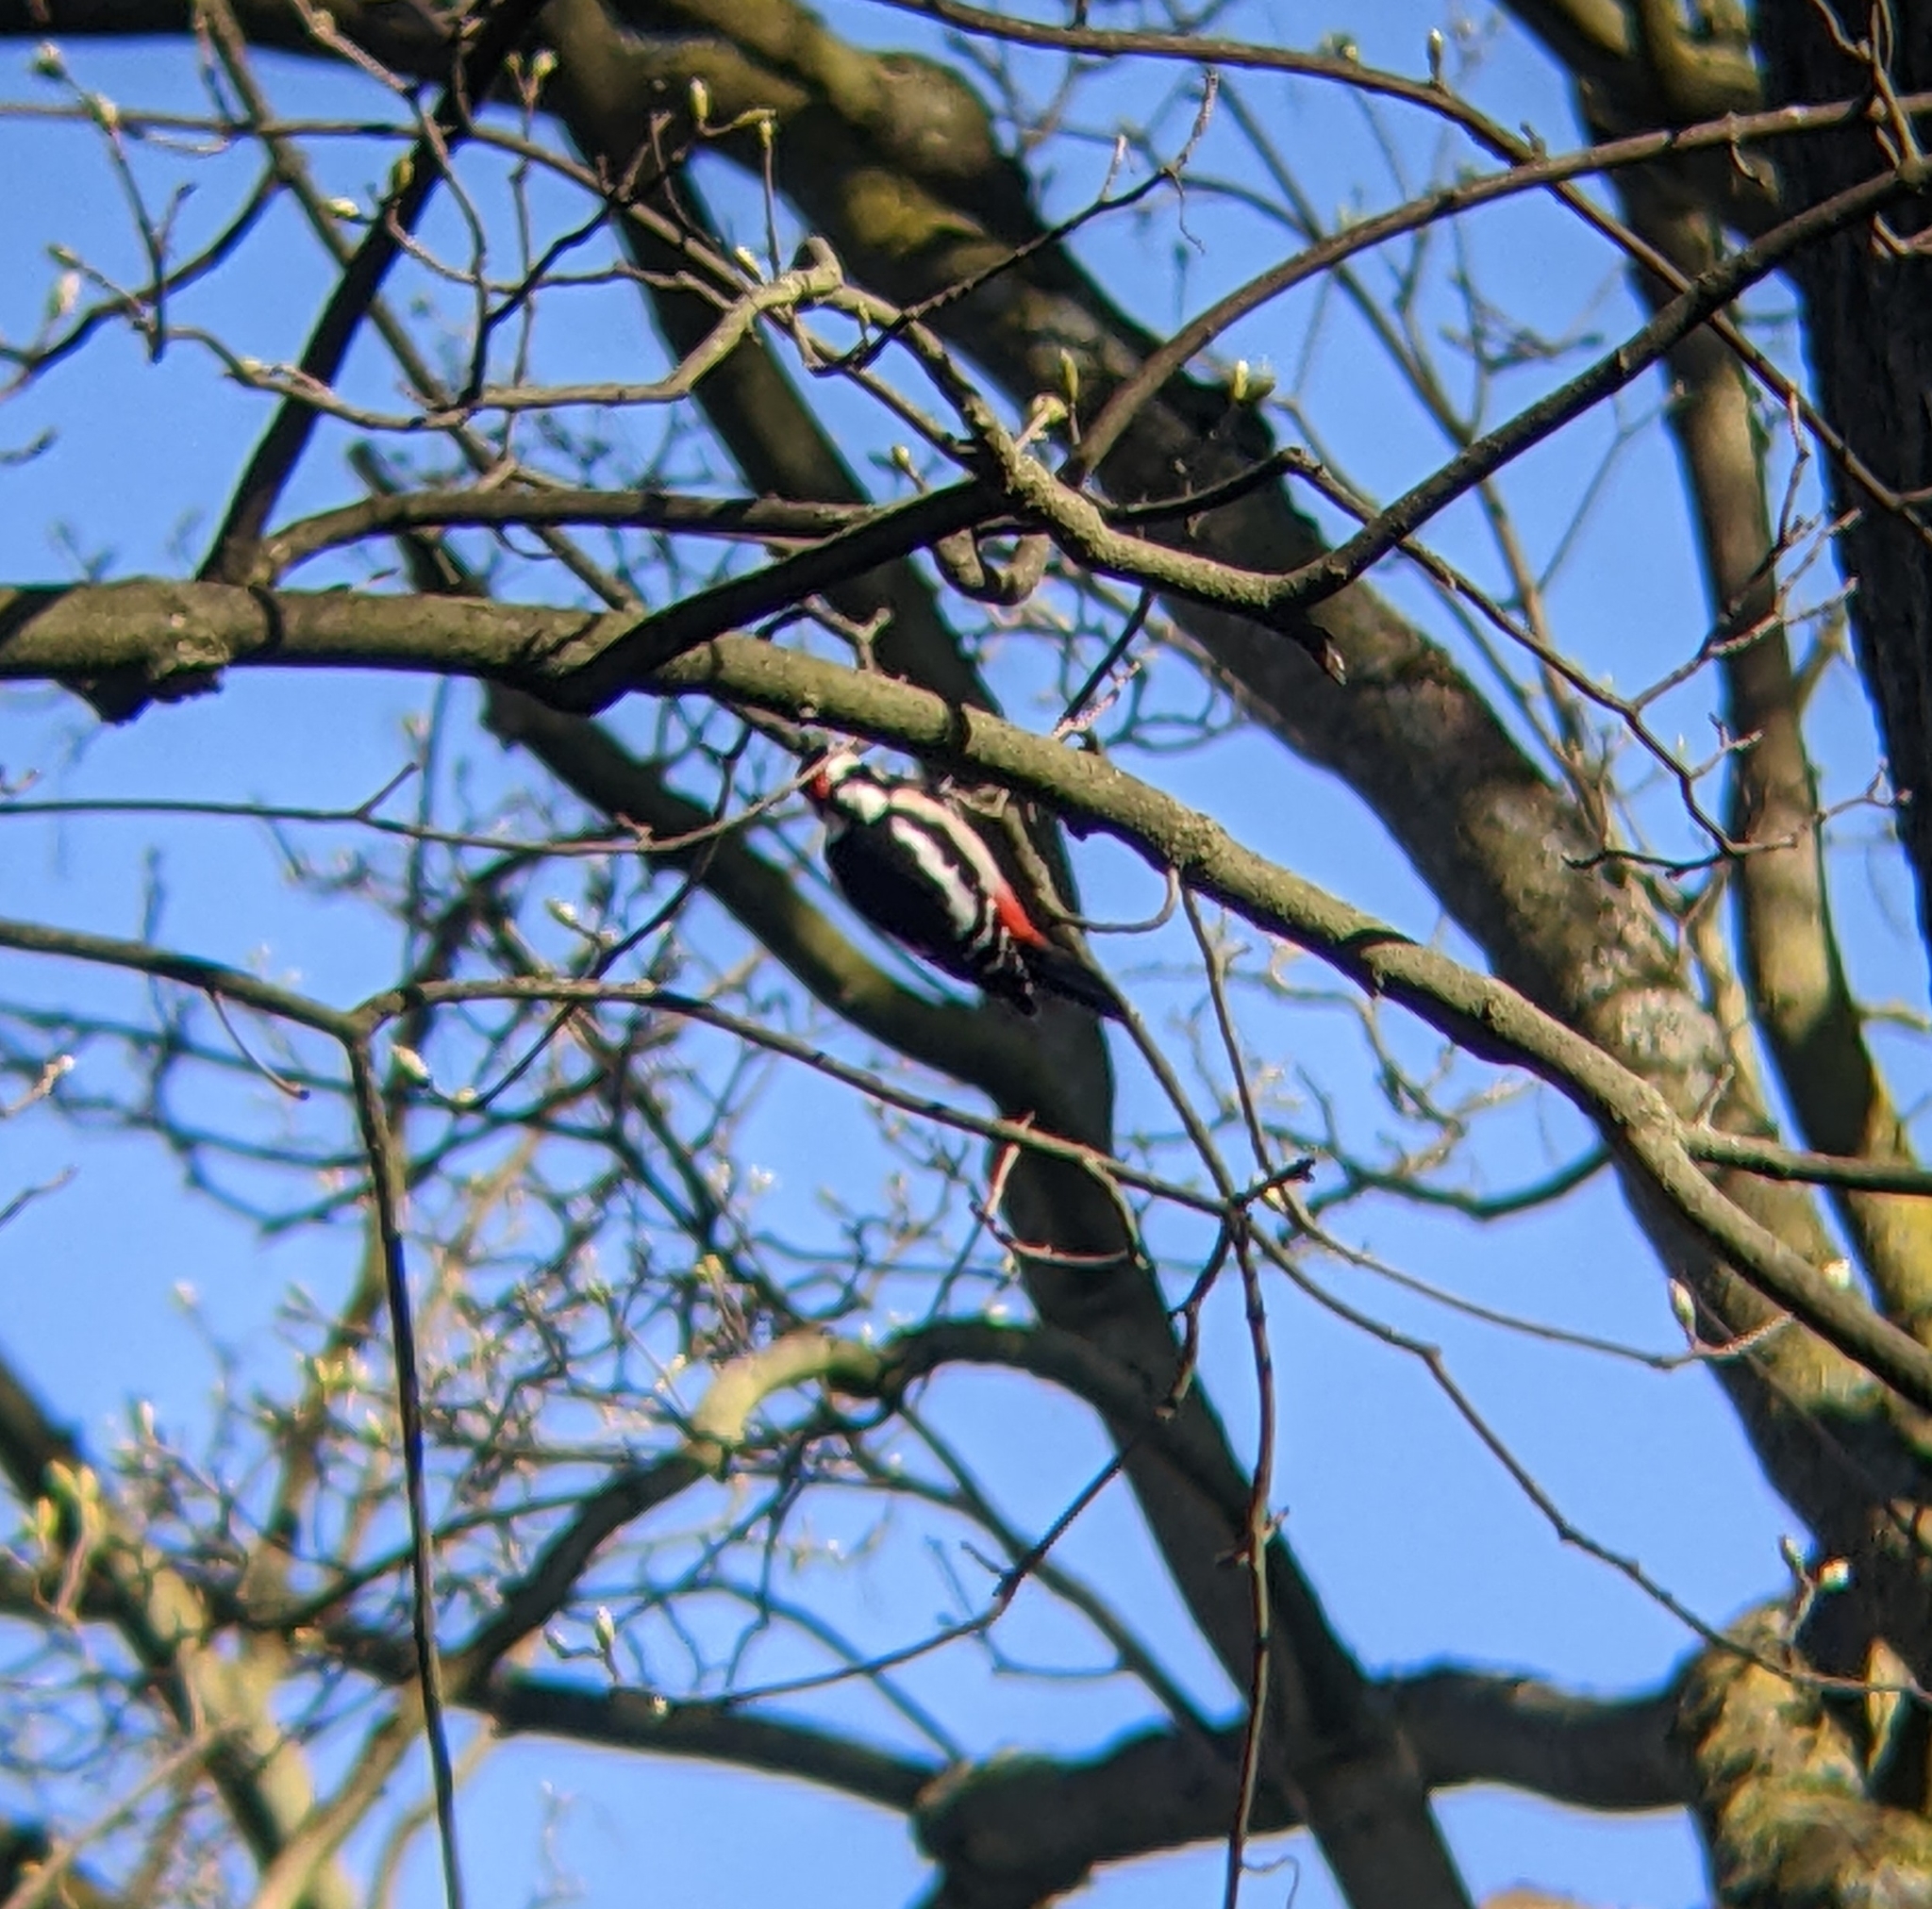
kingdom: Animalia
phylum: Chordata
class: Aves
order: Piciformes
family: Picidae
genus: Dendrocopos
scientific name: Dendrocopos major
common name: Great spotted woodpecker
